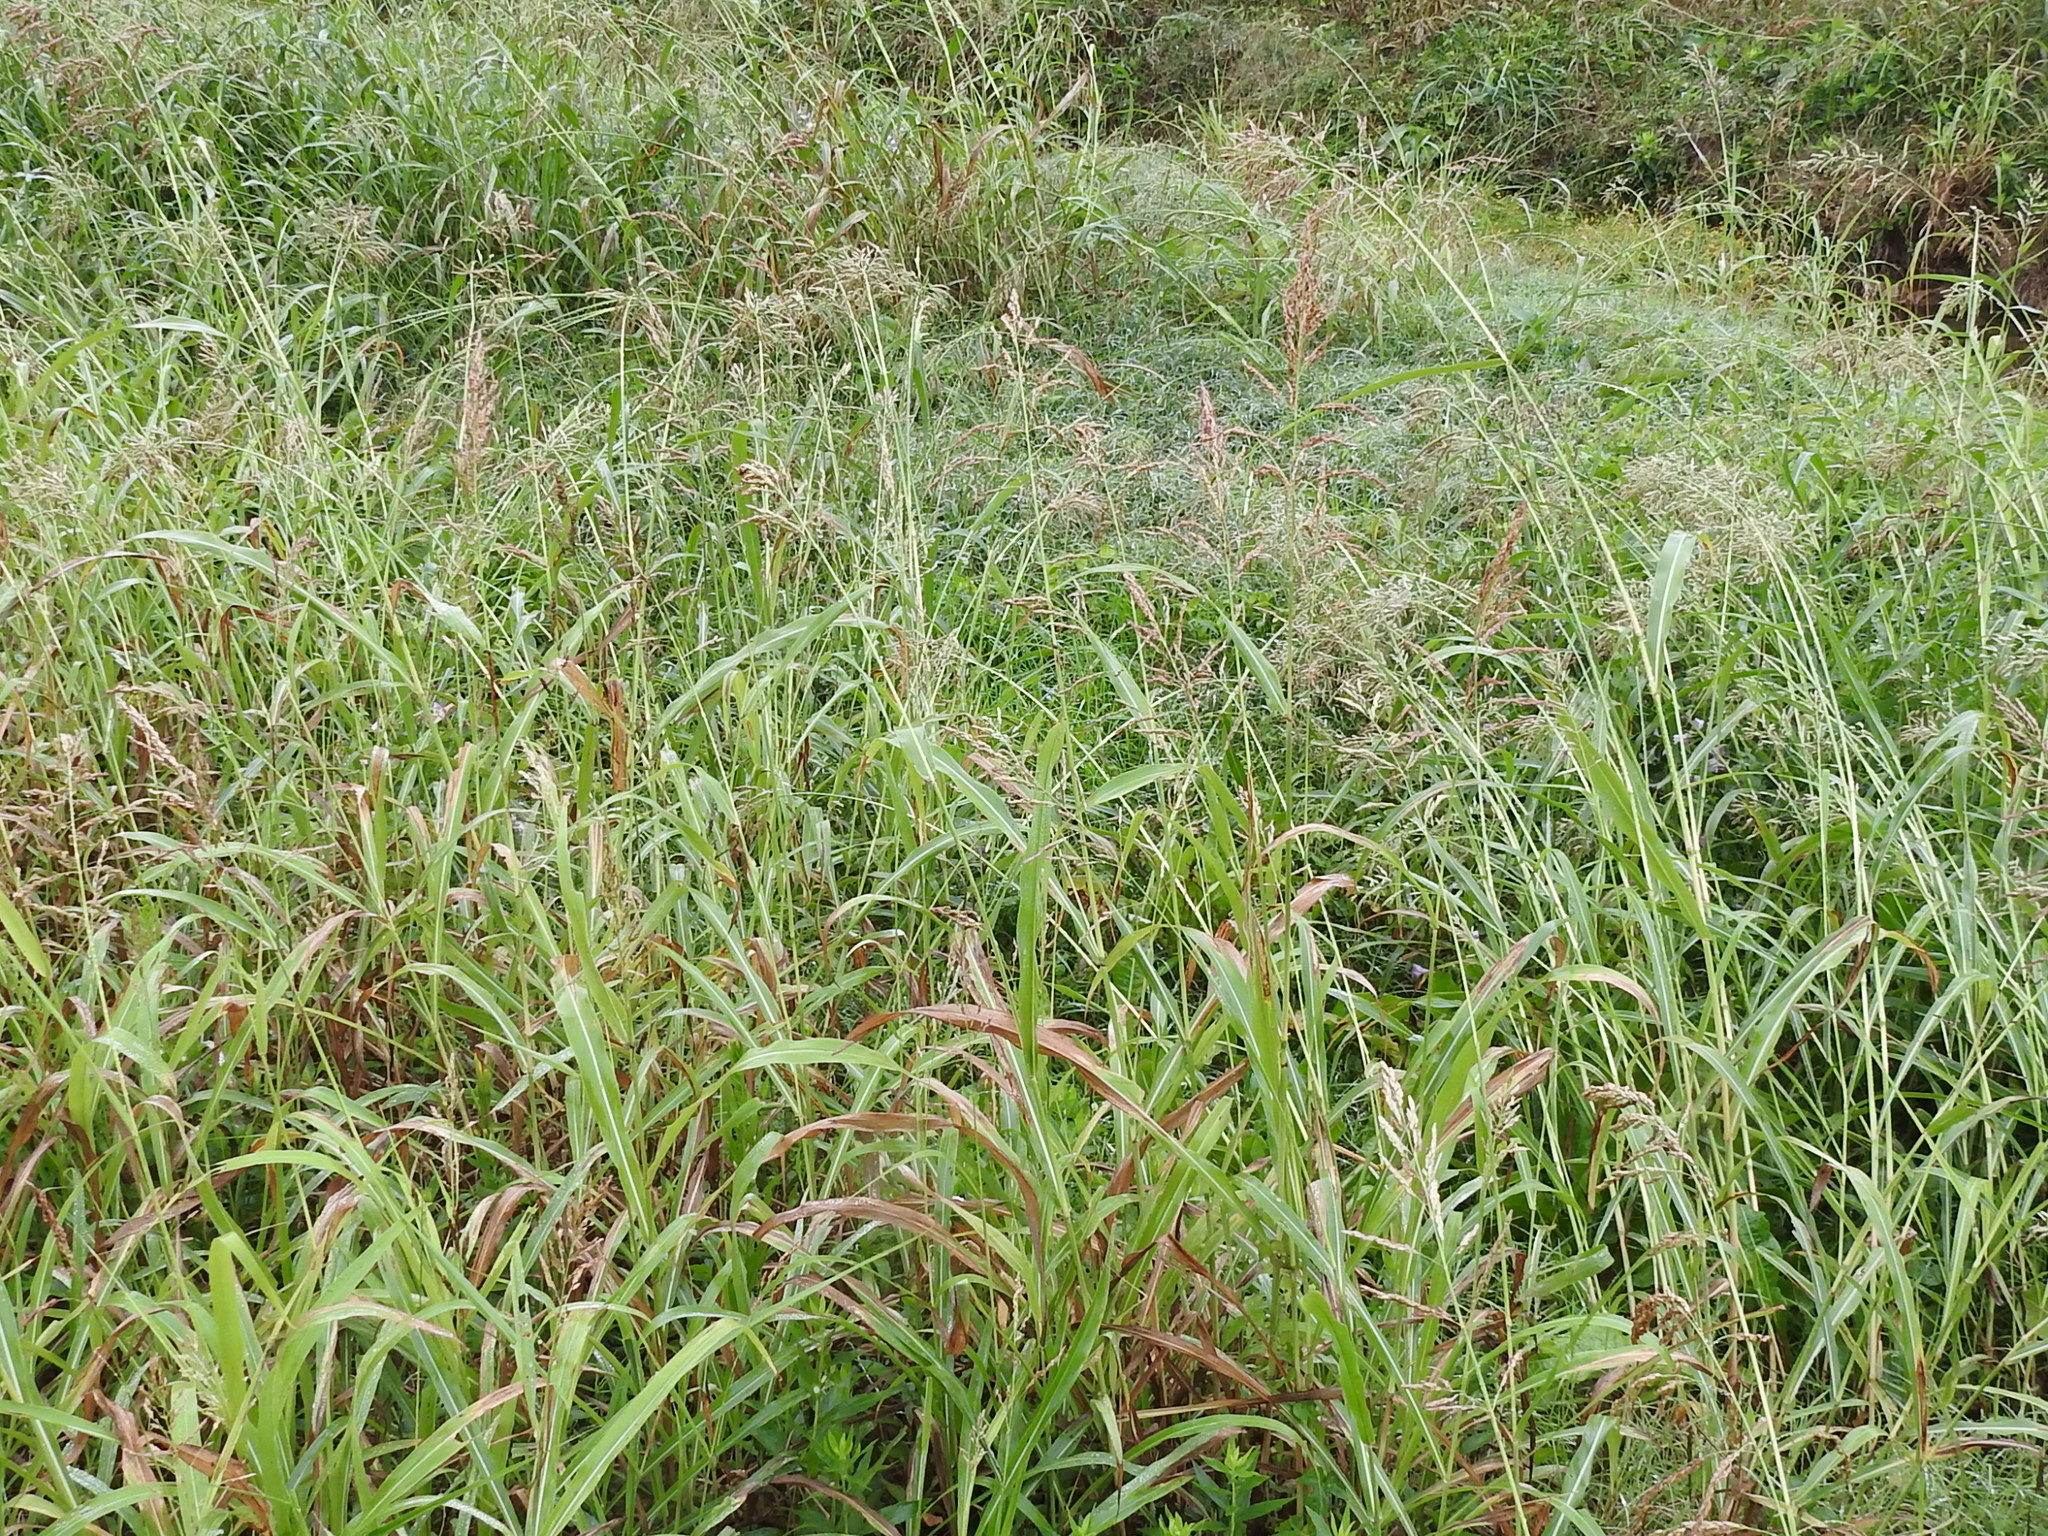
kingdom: Plantae
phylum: Tracheophyta
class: Liliopsida
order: Poales
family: Poaceae
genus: Sorghum
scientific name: Sorghum halepense
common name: Johnson-grass
